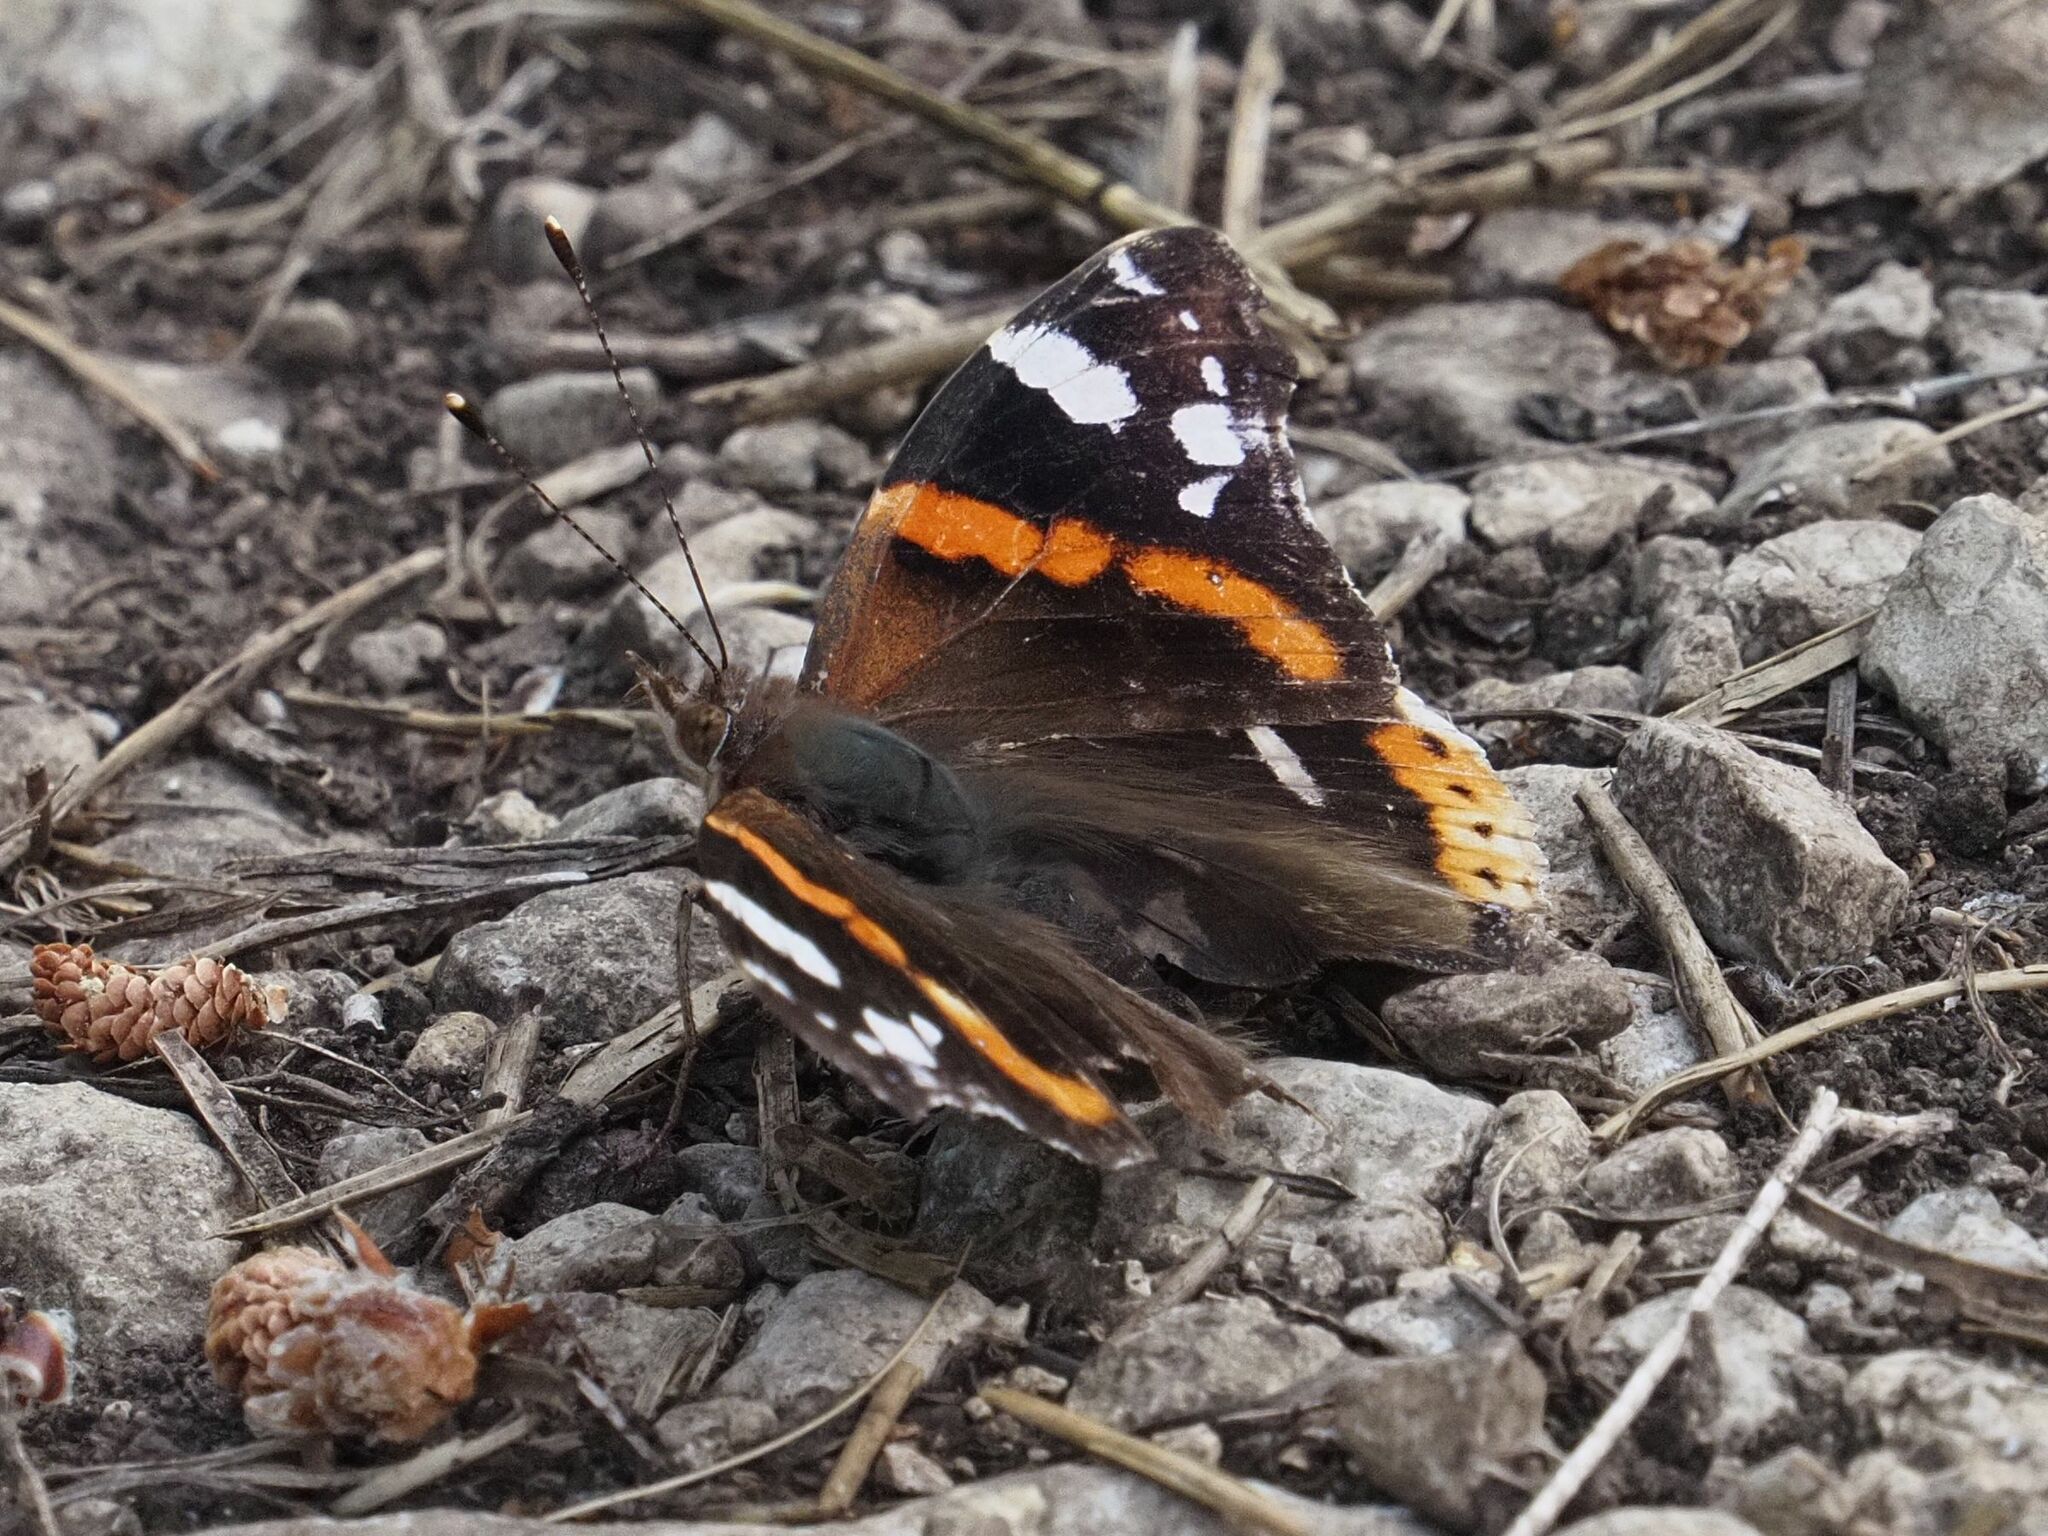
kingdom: Animalia
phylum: Arthropoda
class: Insecta
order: Lepidoptera
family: Nymphalidae
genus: Vanessa
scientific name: Vanessa atalanta
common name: Red admiral
